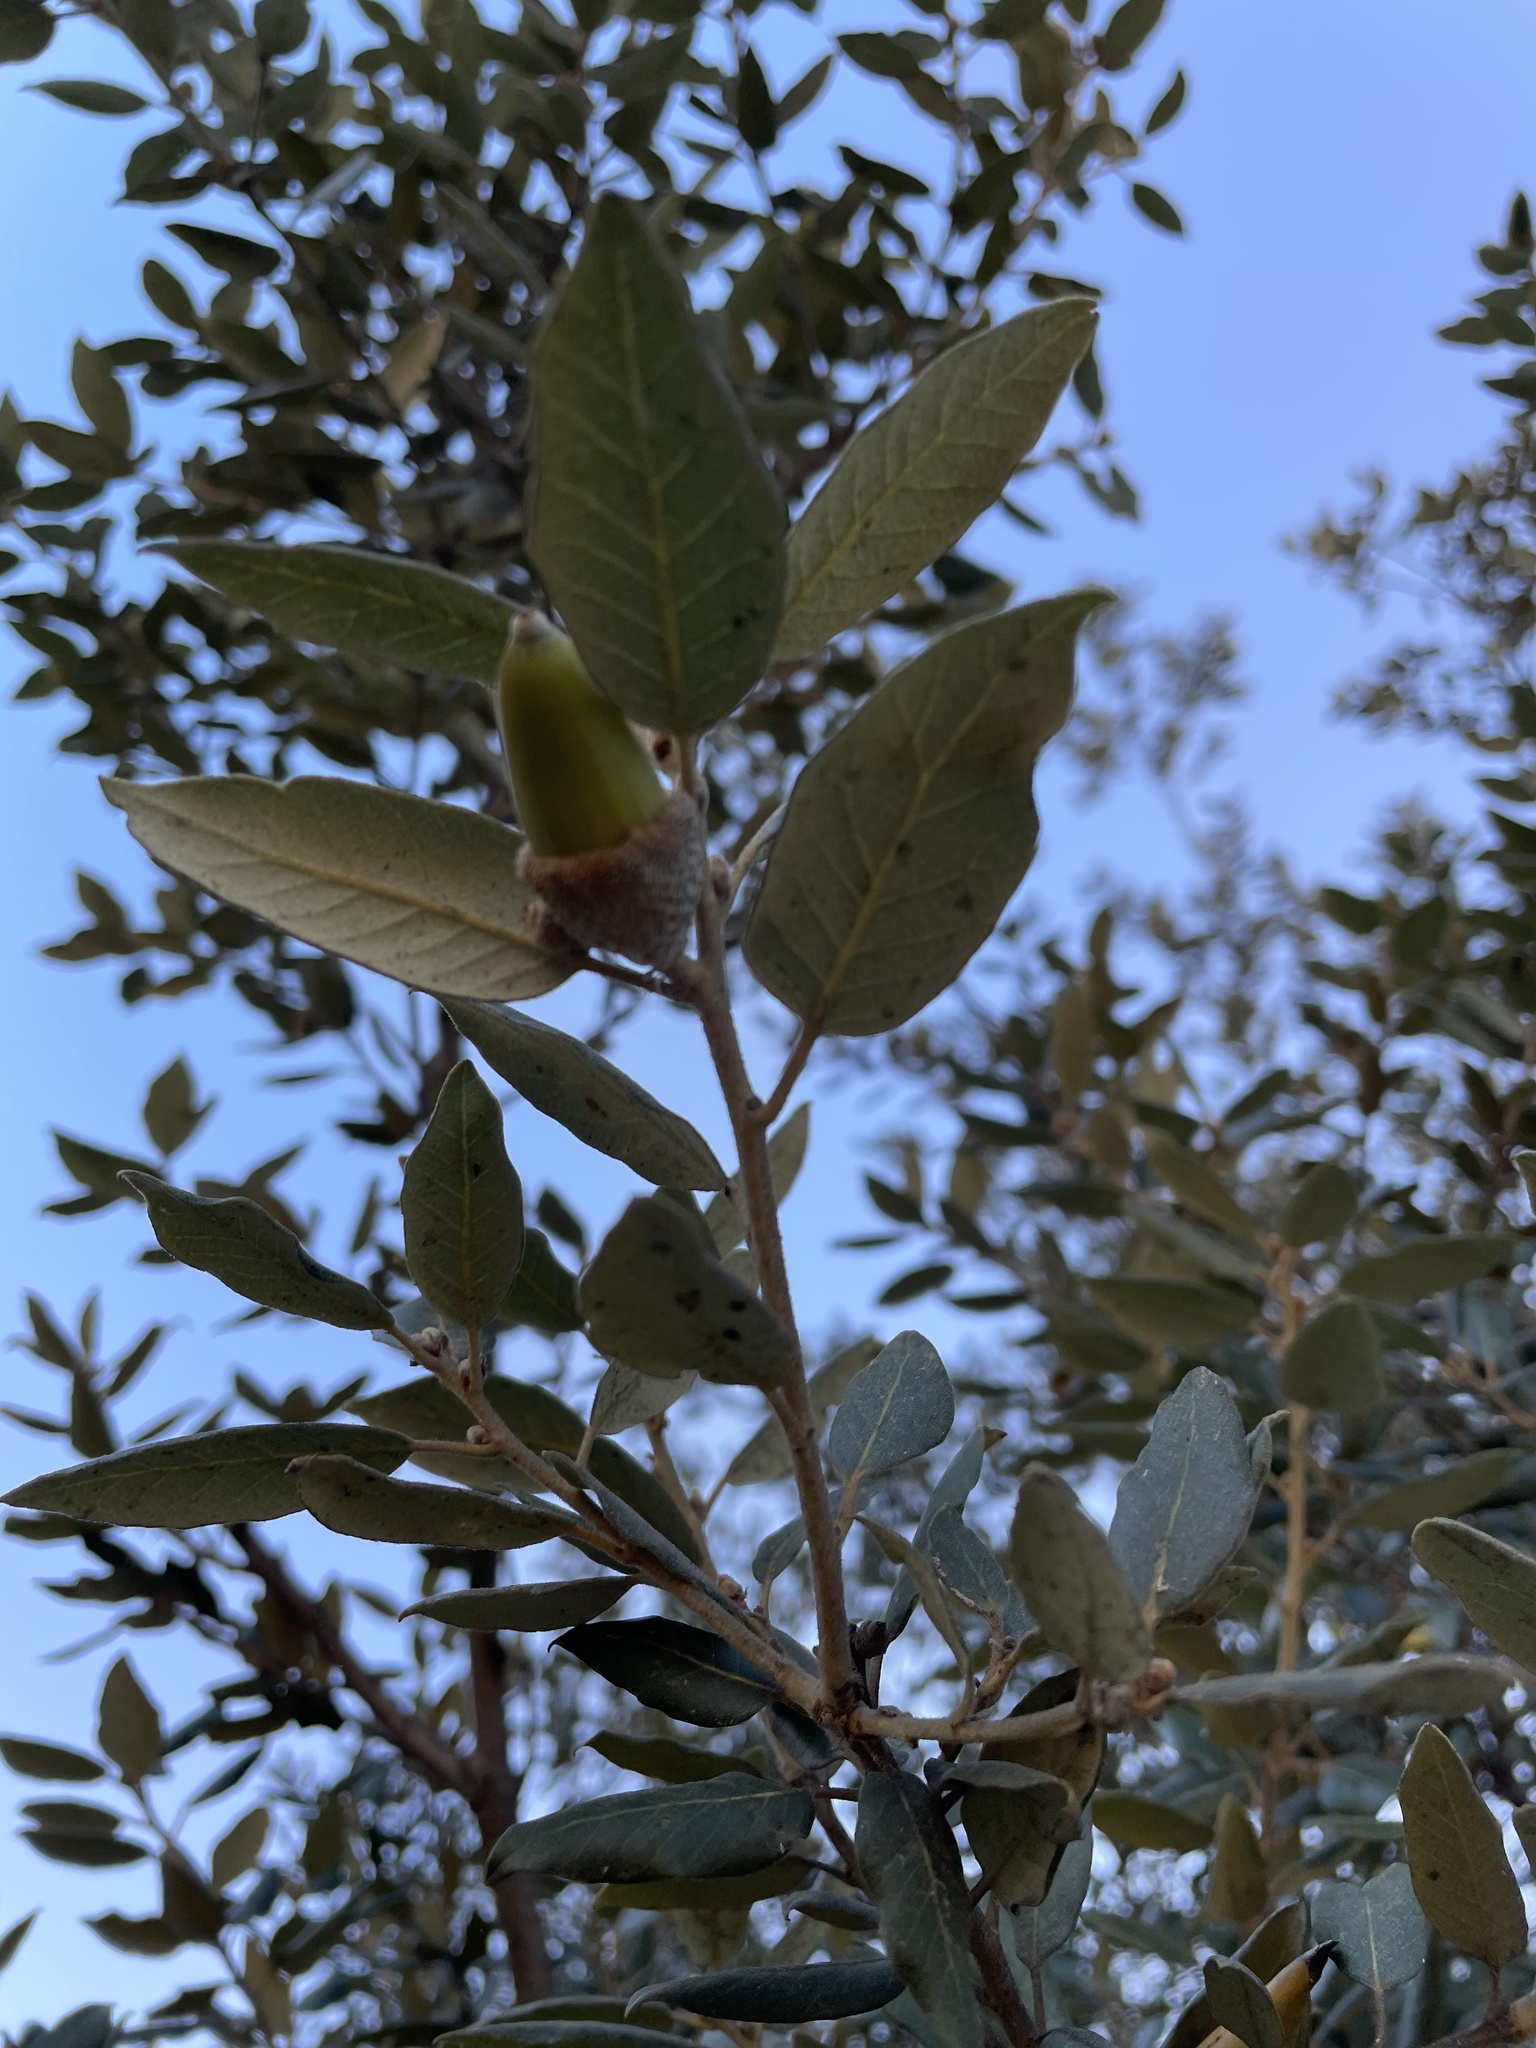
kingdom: Plantae
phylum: Tracheophyta
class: Magnoliopsida
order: Fagales
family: Fagaceae
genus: Quercus
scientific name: Quercus ilex
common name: Evergreen oak
